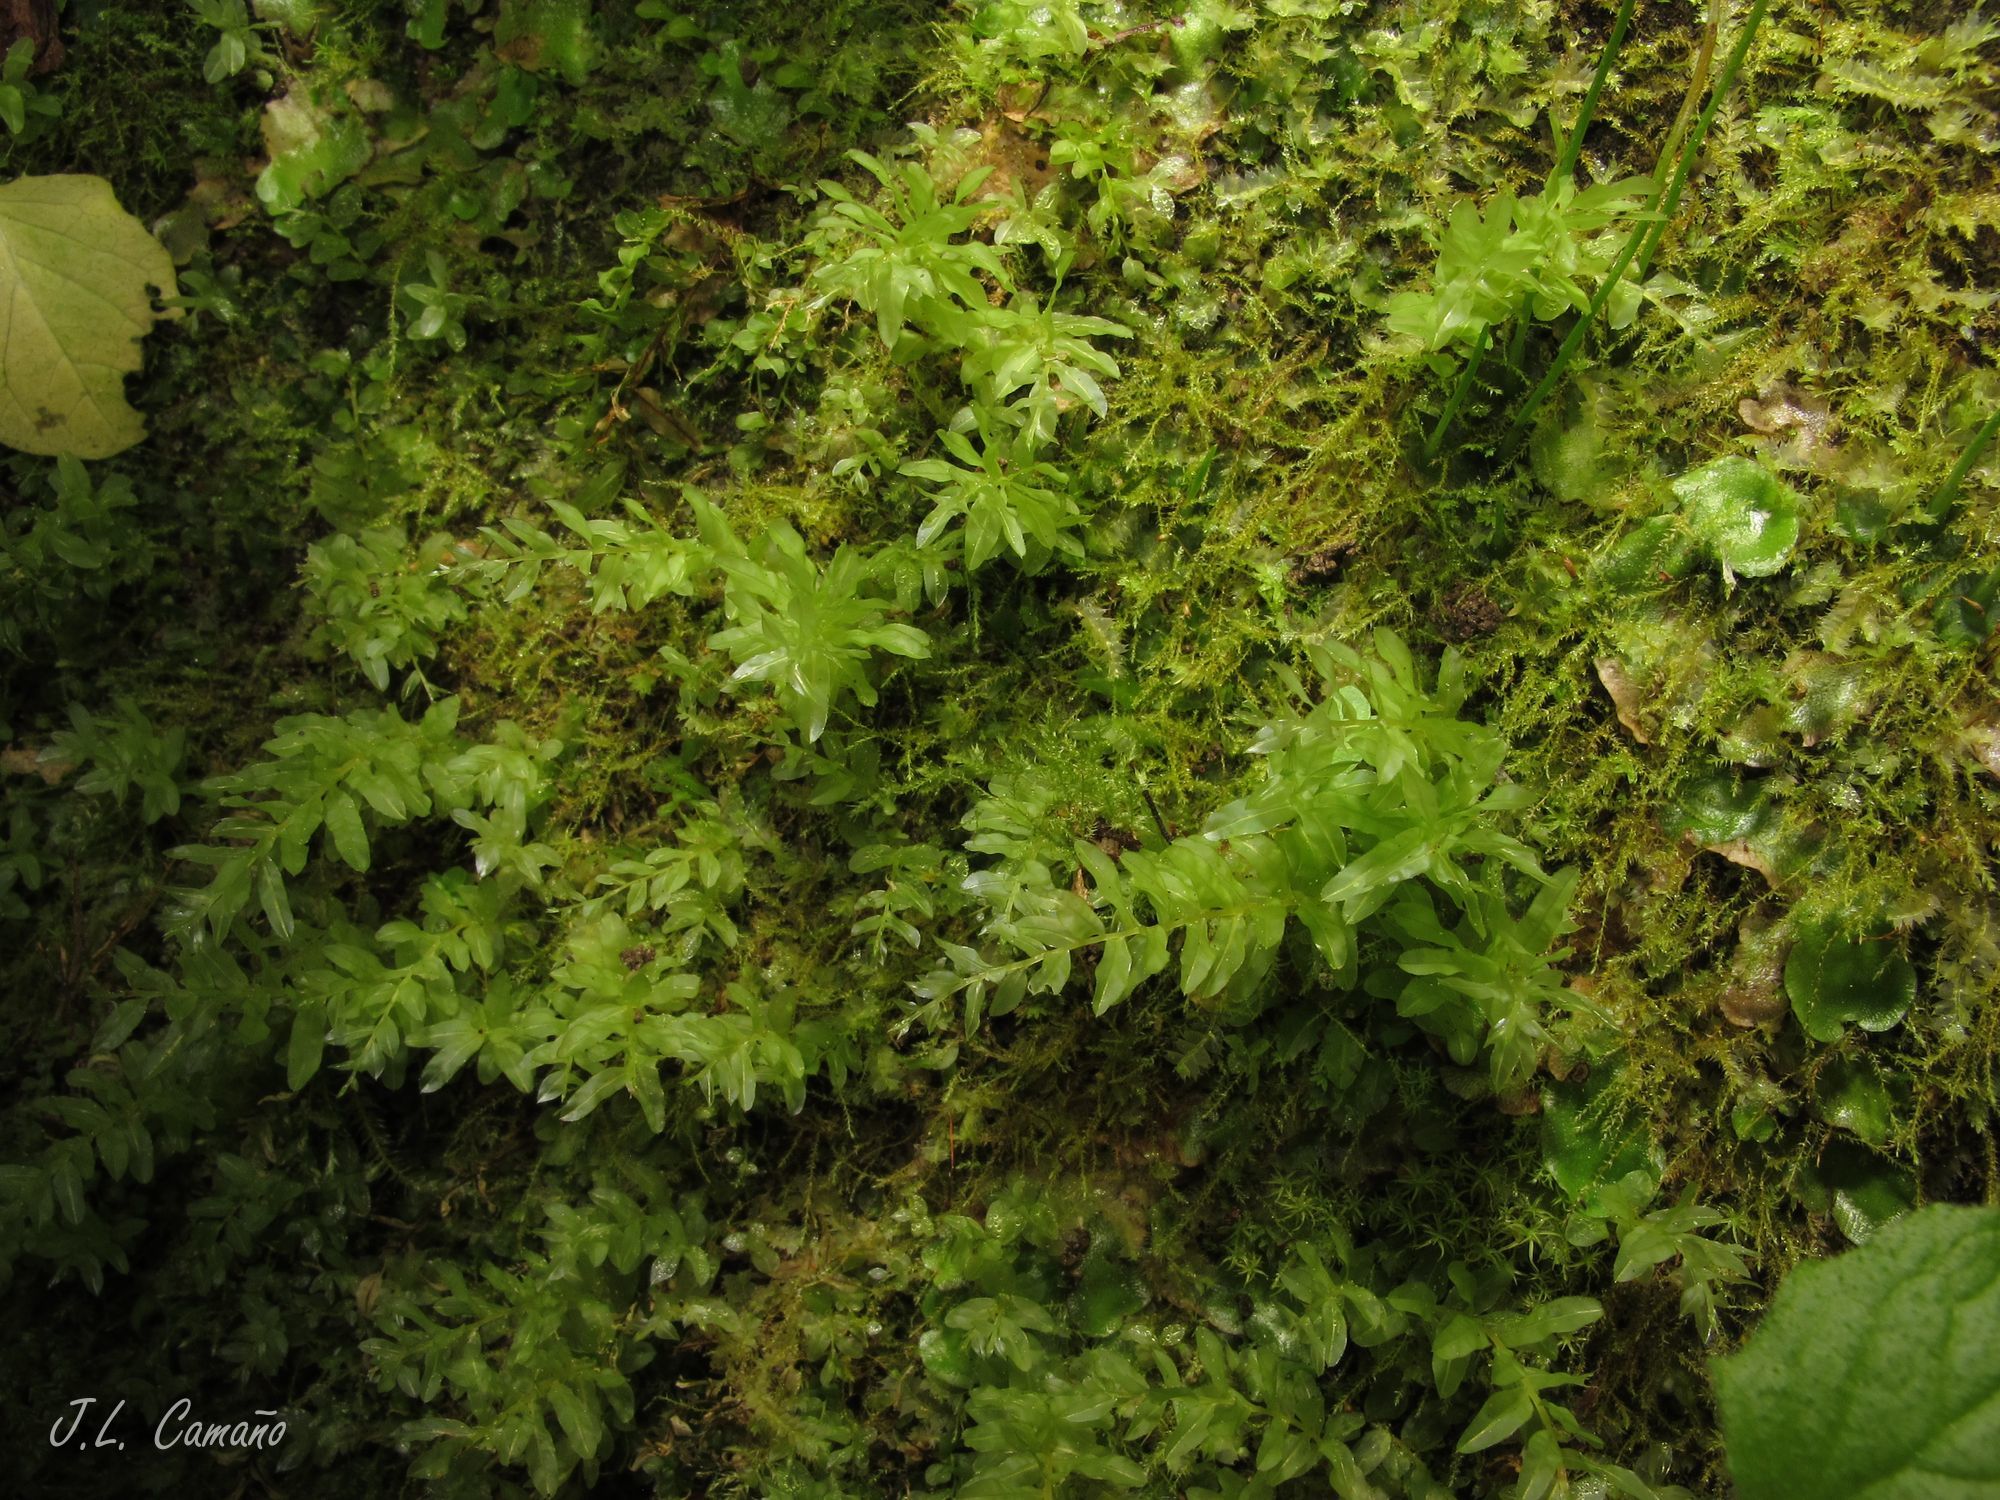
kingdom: Plantae
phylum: Bryophyta
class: Bryopsida
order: Bryales
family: Mniaceae
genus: Plagiomnium
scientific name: Plagiomnium undulatum
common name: Hart's-tongue thyme-moss
